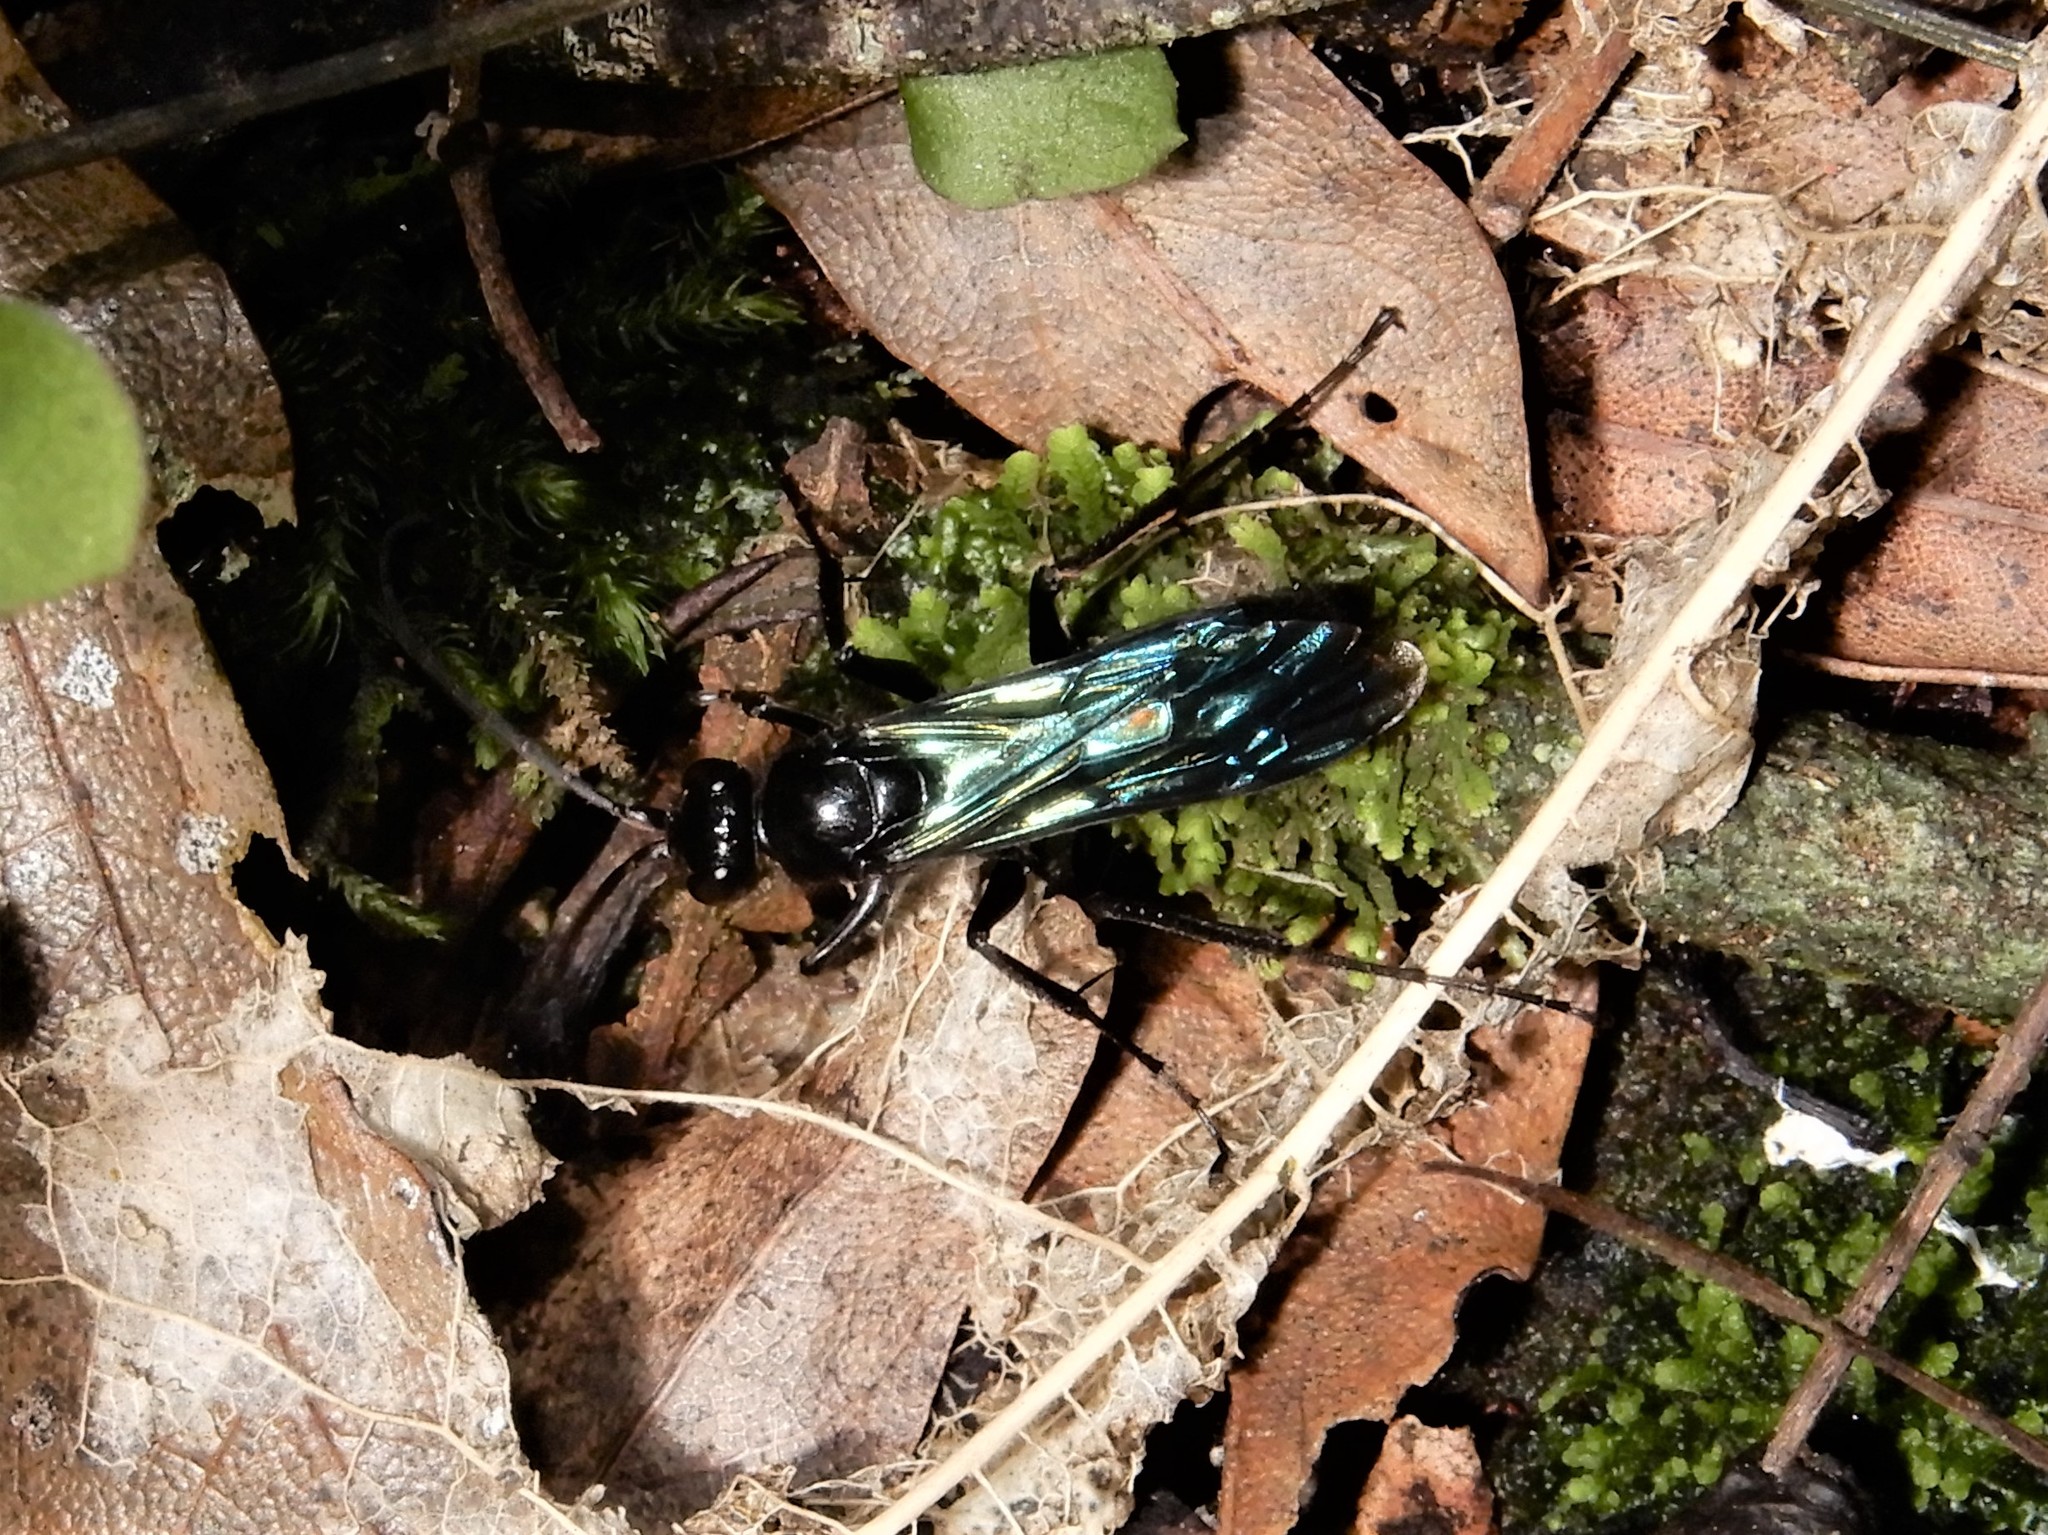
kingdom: Animalia
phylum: Arthropoda
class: Insecta
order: Hymenoptera
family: Pompilidae
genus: Priocnemis
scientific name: Priocnemis monachus
